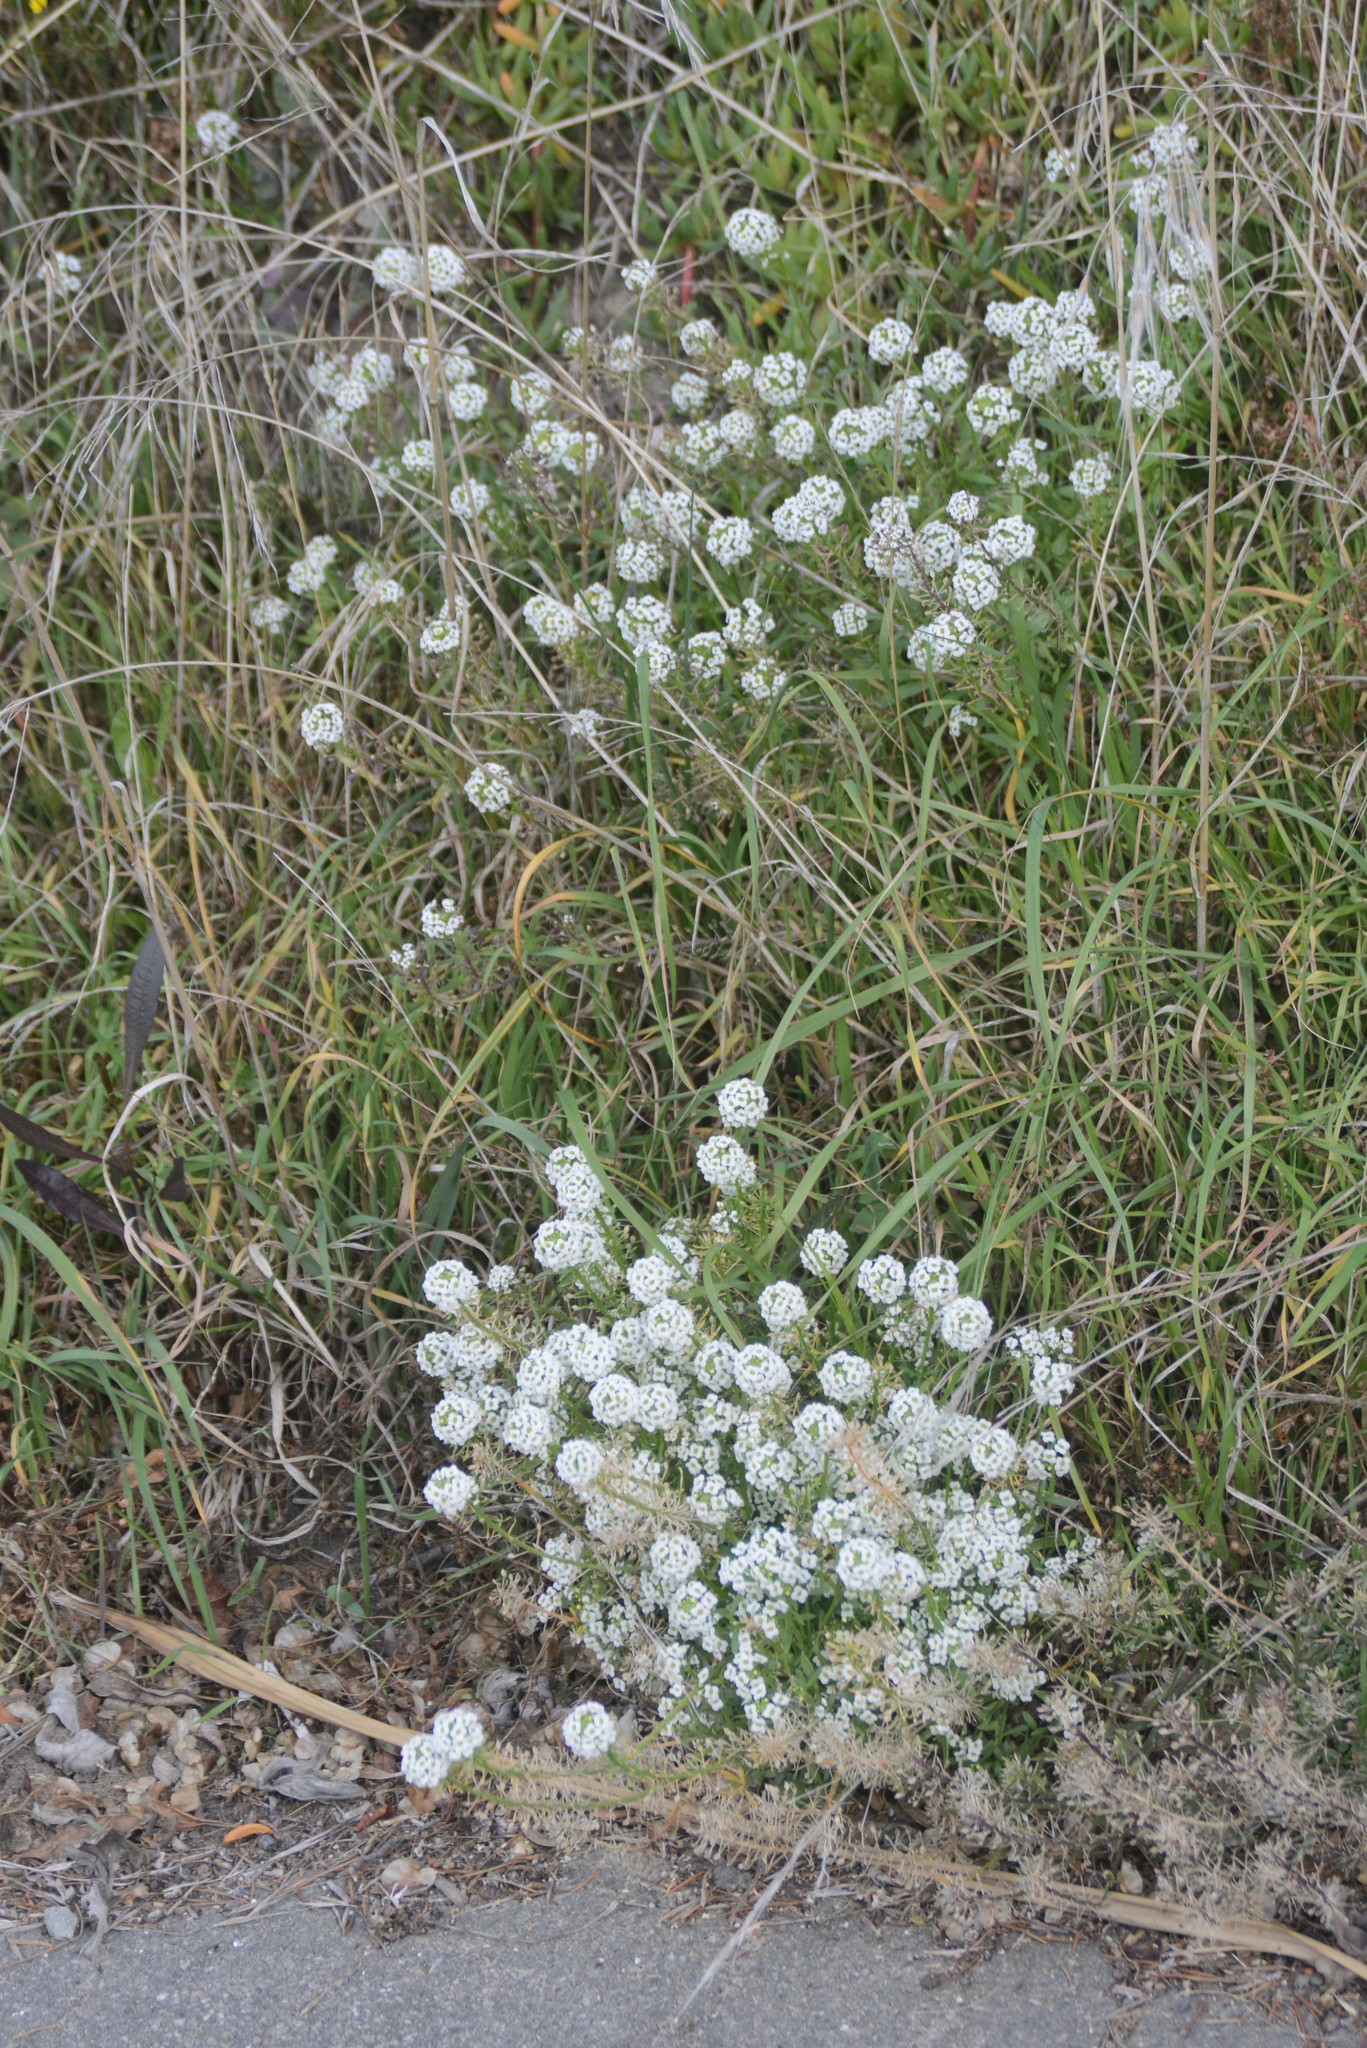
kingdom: Plantae
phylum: Tracheophyta
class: Magnoliopsida
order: Brassicales
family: Brassicaceae
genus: Lobularia
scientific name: Lobularia maritima
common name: Sweet alison
